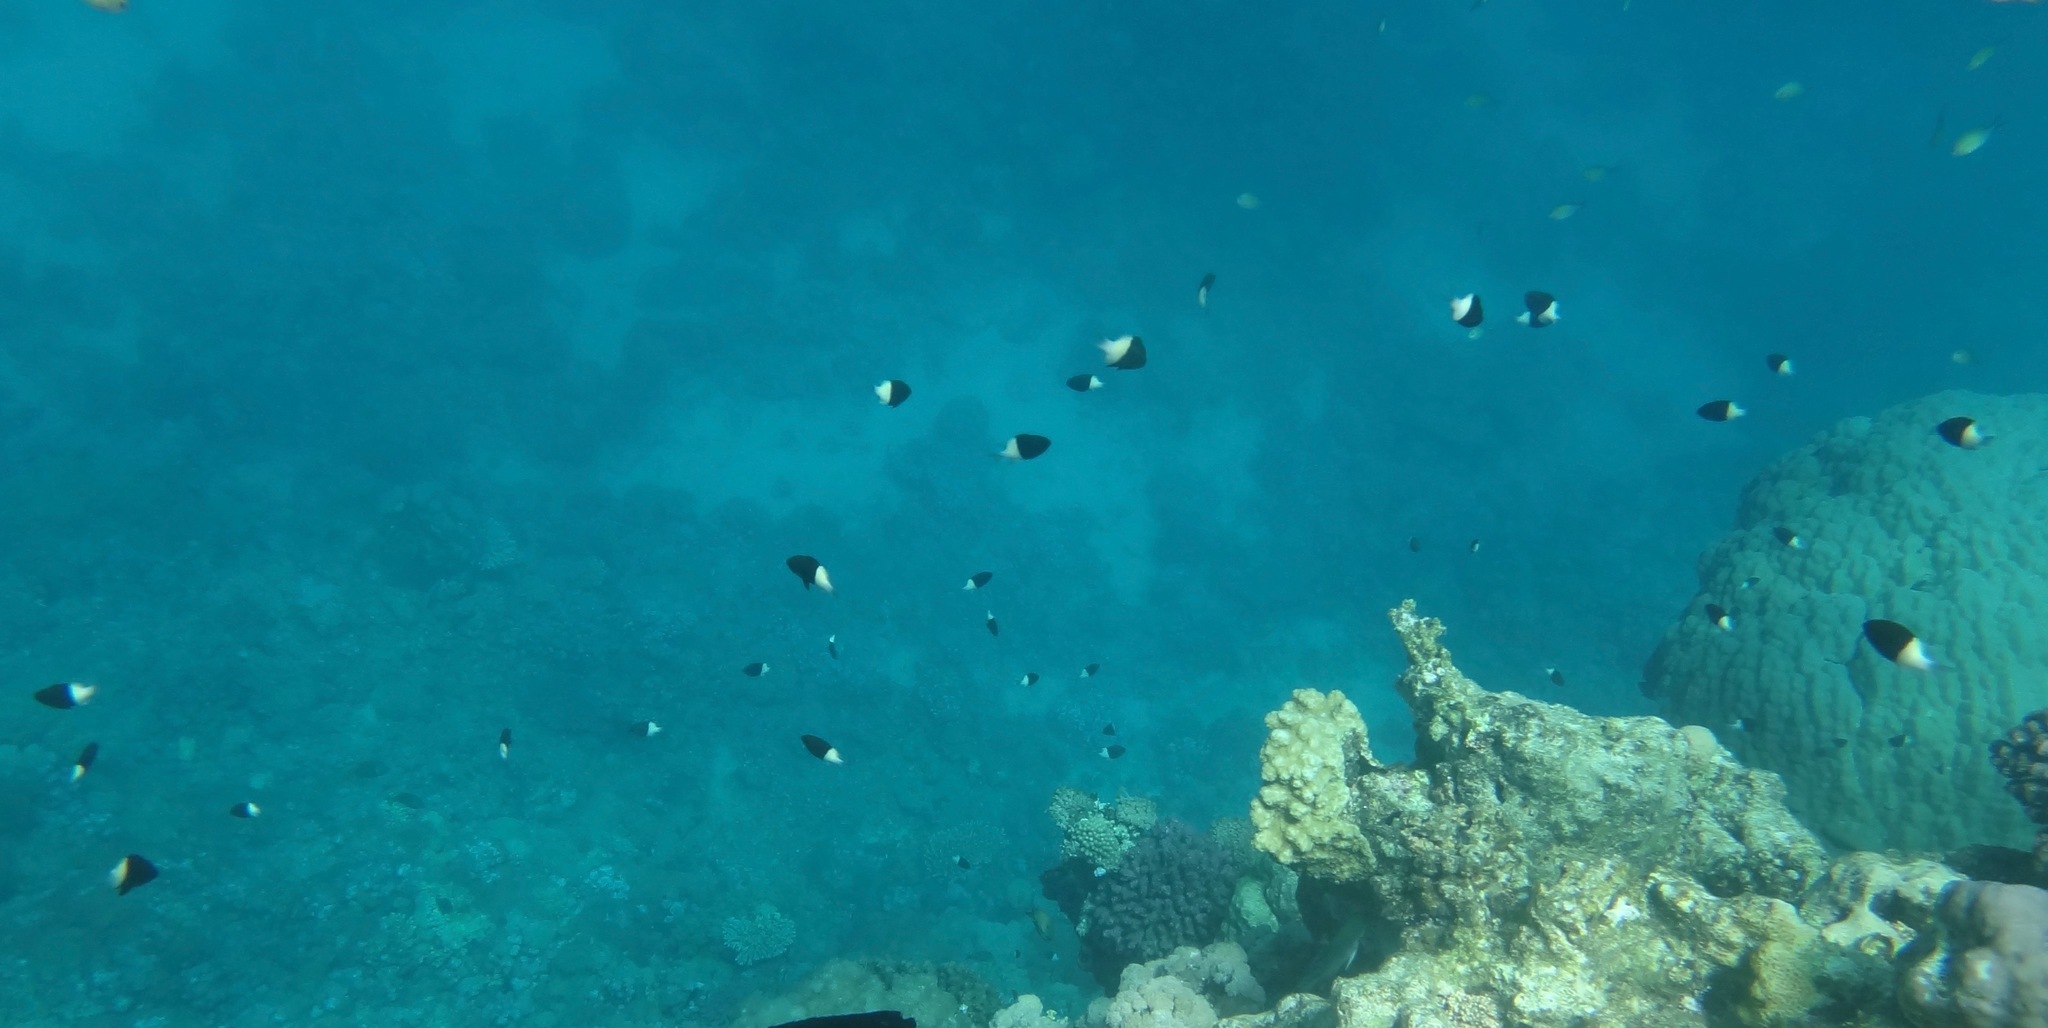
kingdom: Animalia
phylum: Chordata
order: Perciformes
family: Pomacentridae
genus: Chromis
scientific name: Chromis dimidiata
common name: Half-and-half chromis
